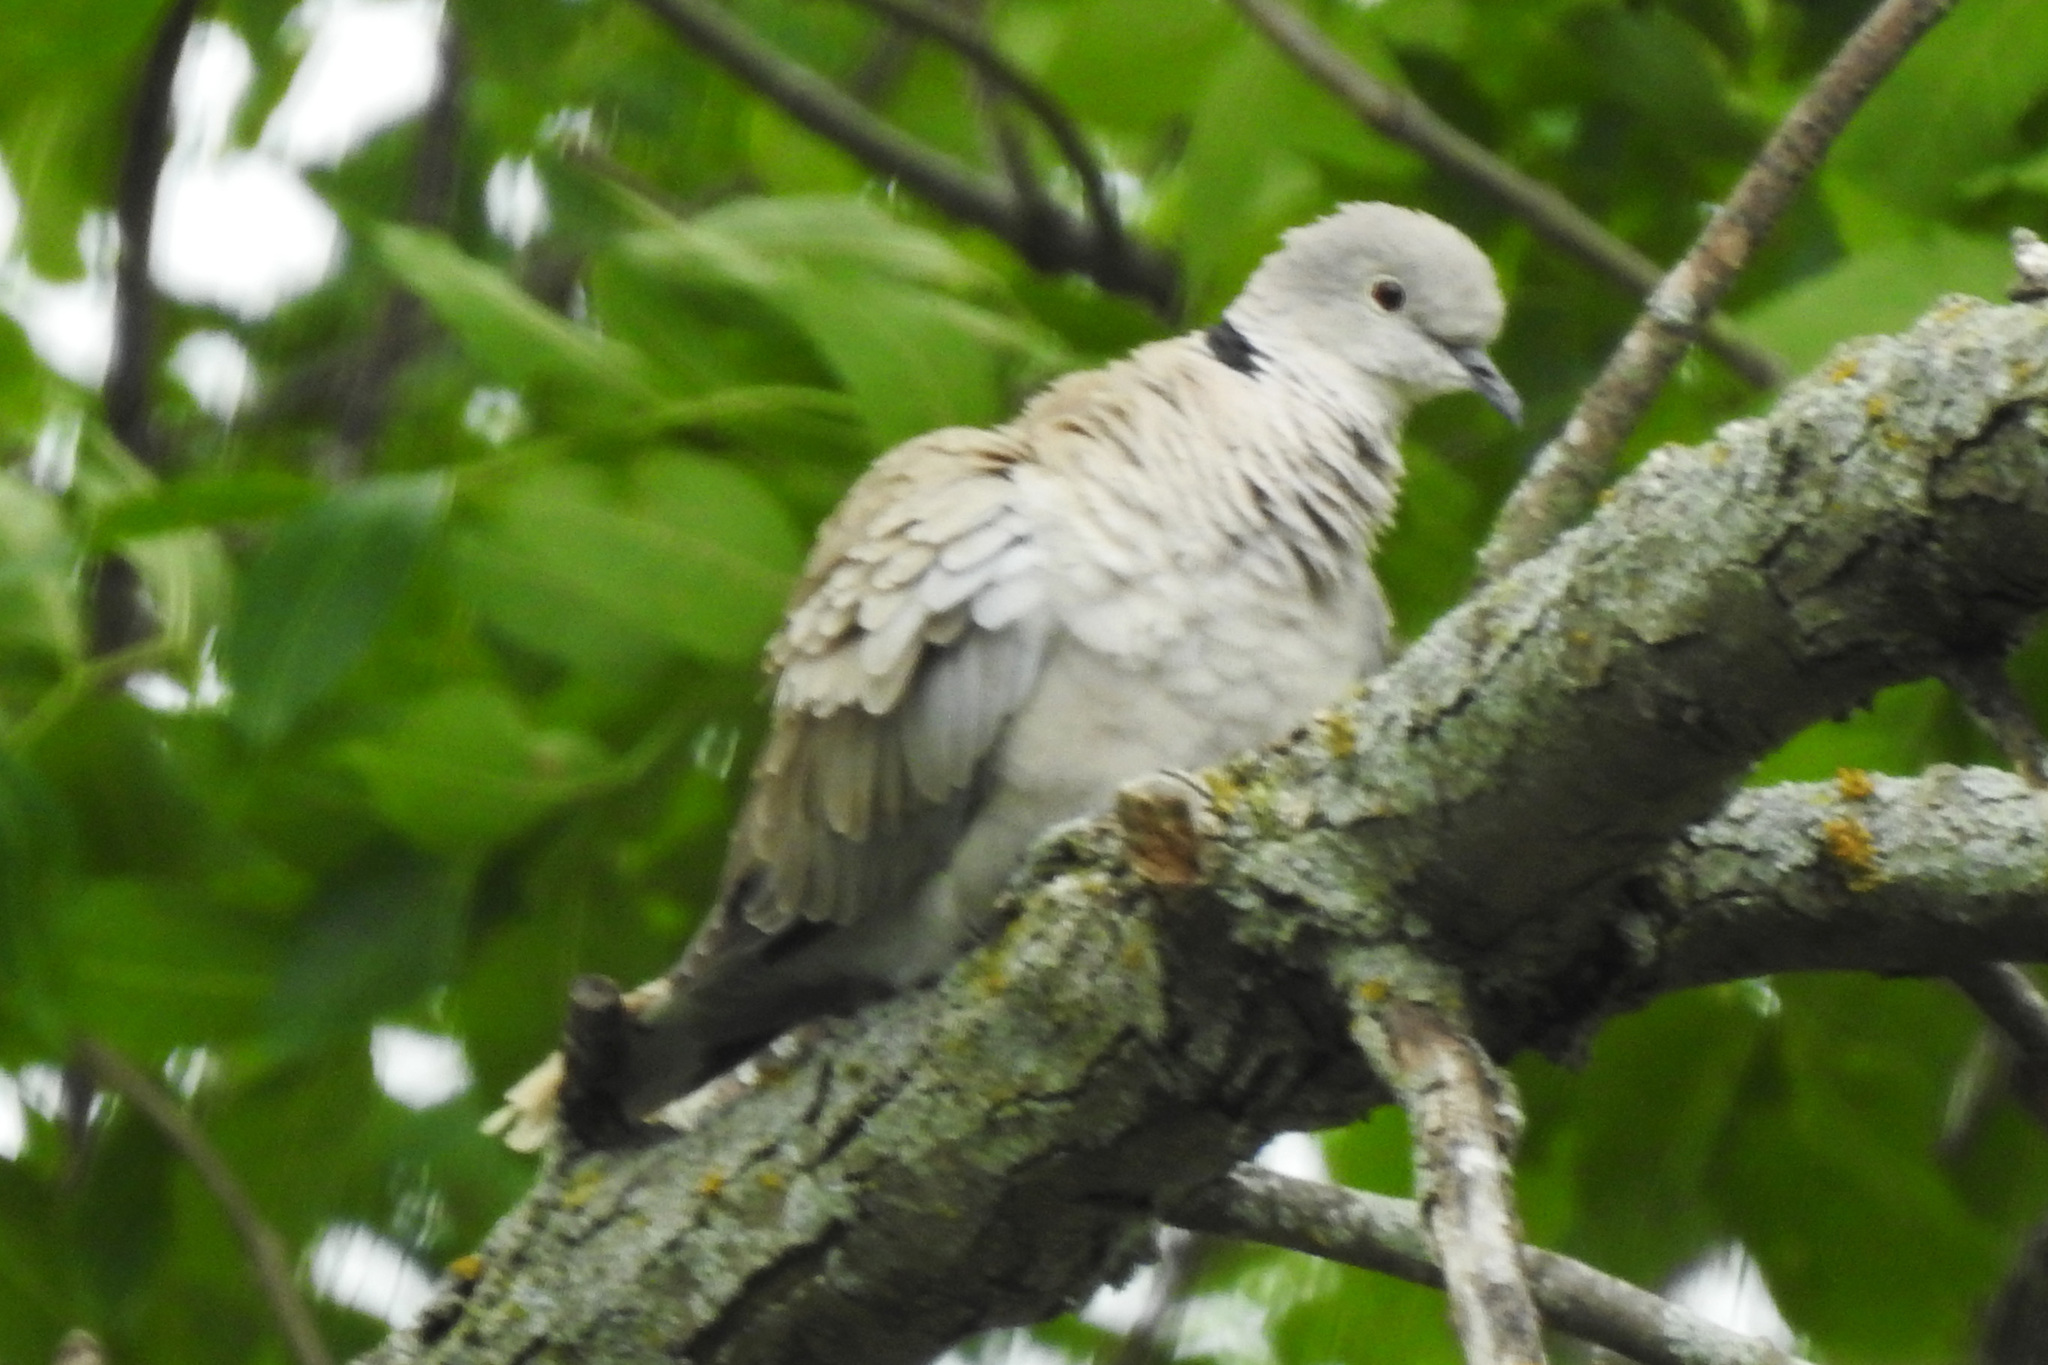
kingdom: Animalia
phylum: Chordata
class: Aves
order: Columbiformes
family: Columbidae
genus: Streptopelia
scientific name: Streptopelia decaocto
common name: Eurasian collared dove
